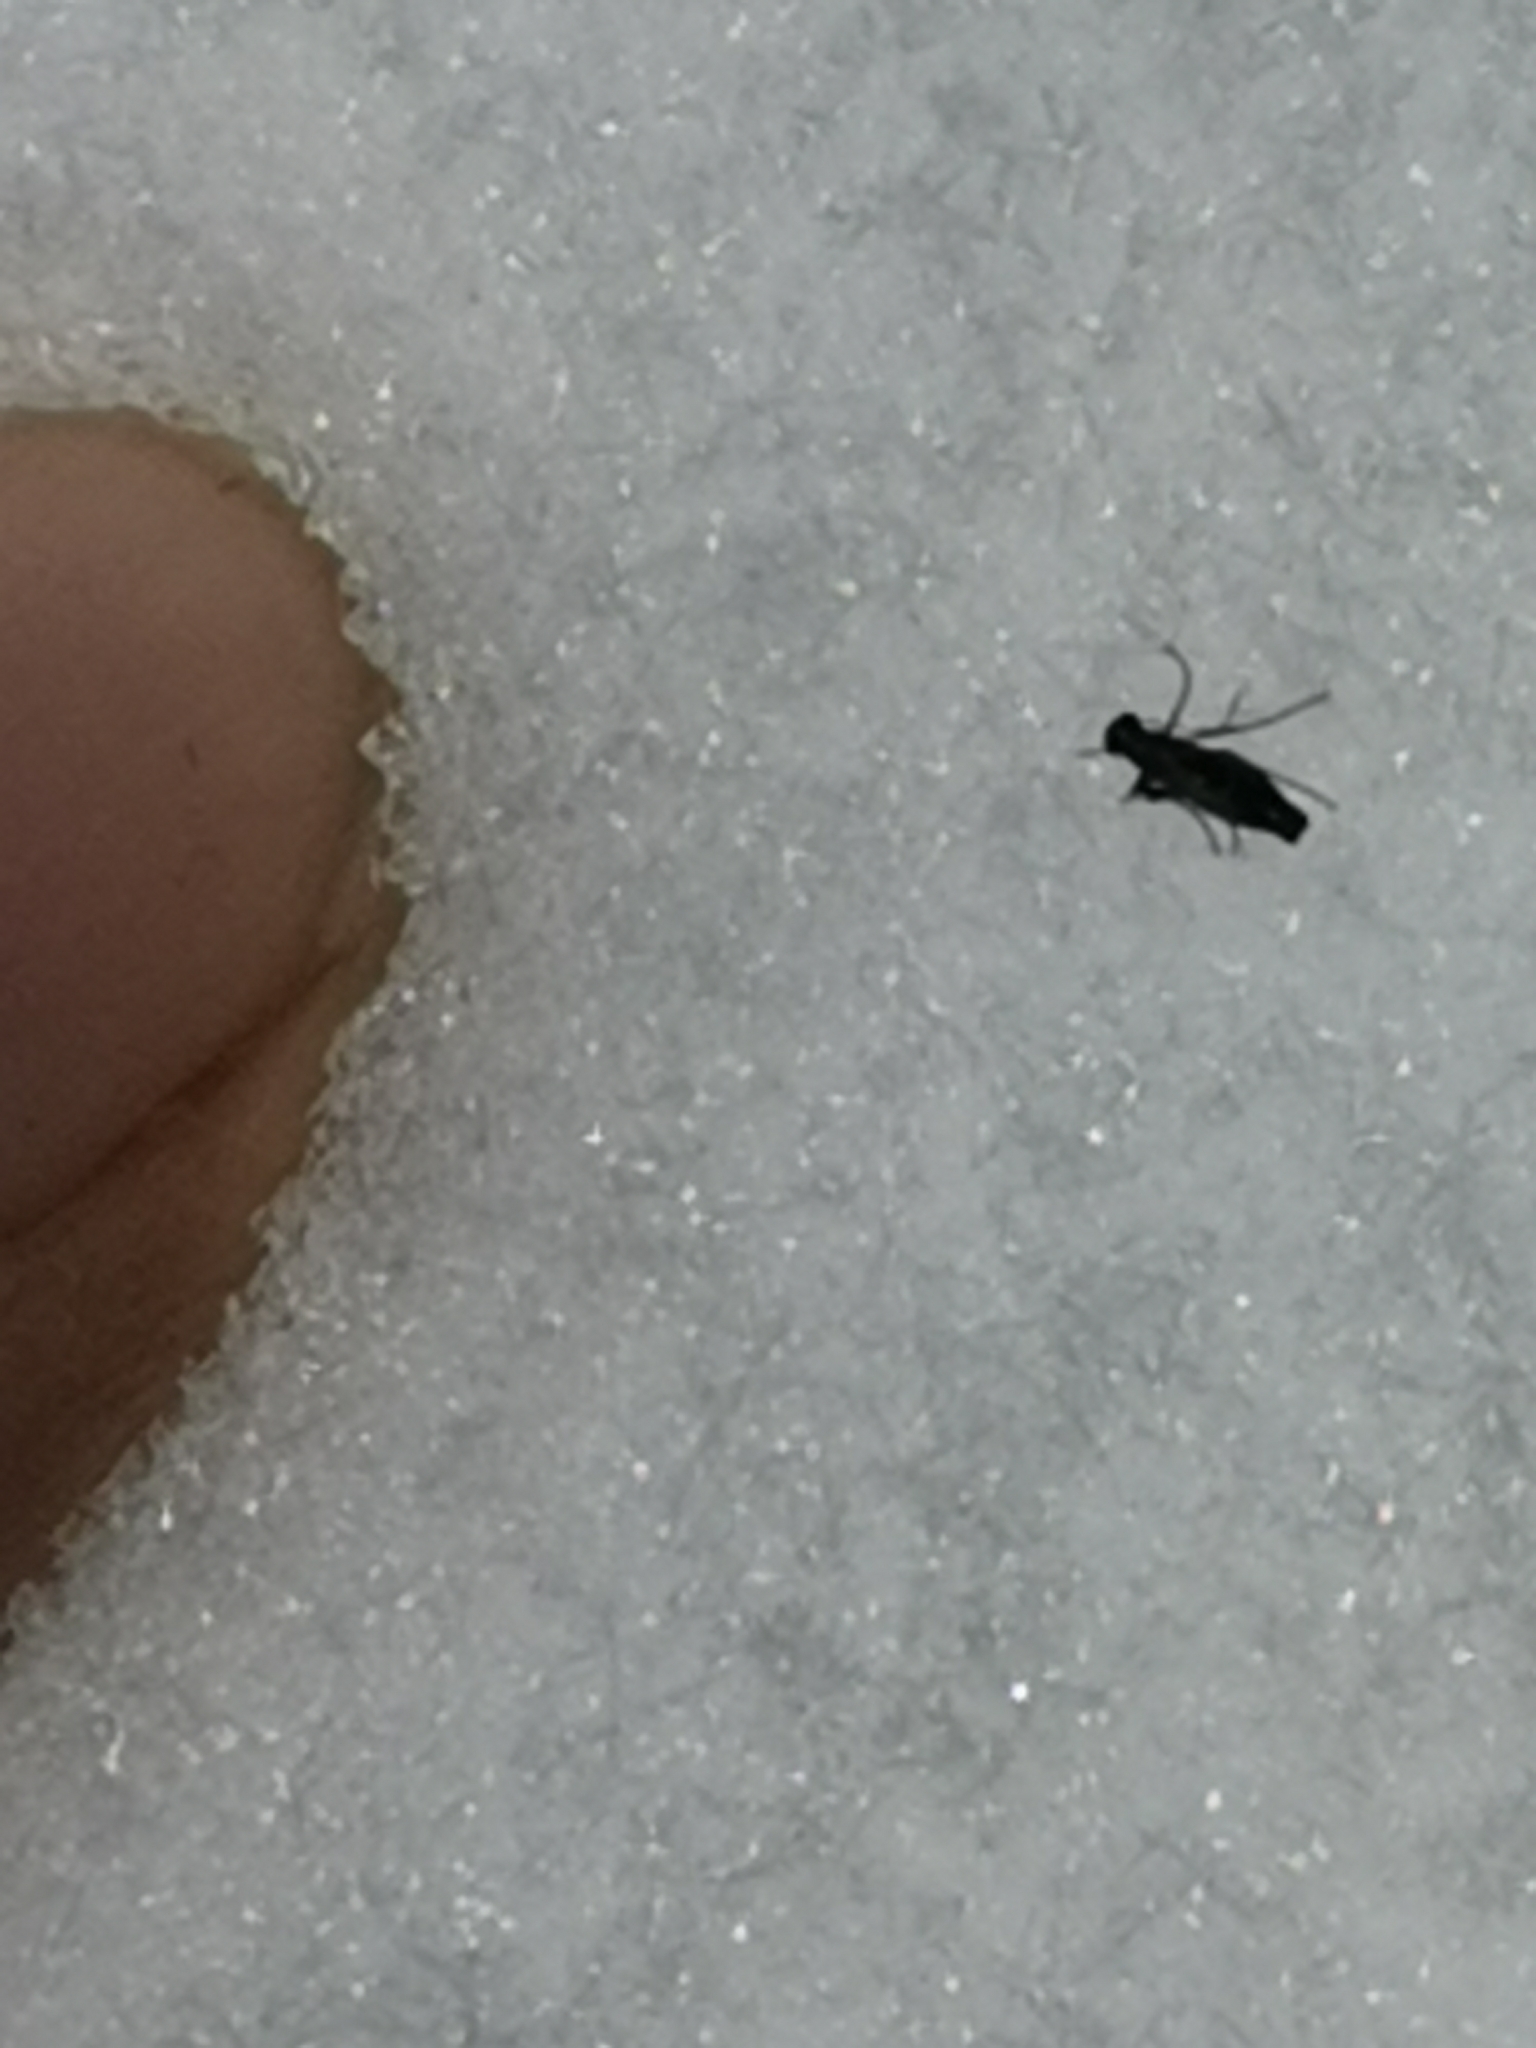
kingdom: Animalia
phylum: Arthropoda
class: Insecta
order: Mecoptera
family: Boreidae
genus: Boreus
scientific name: Boreus westwoodi
